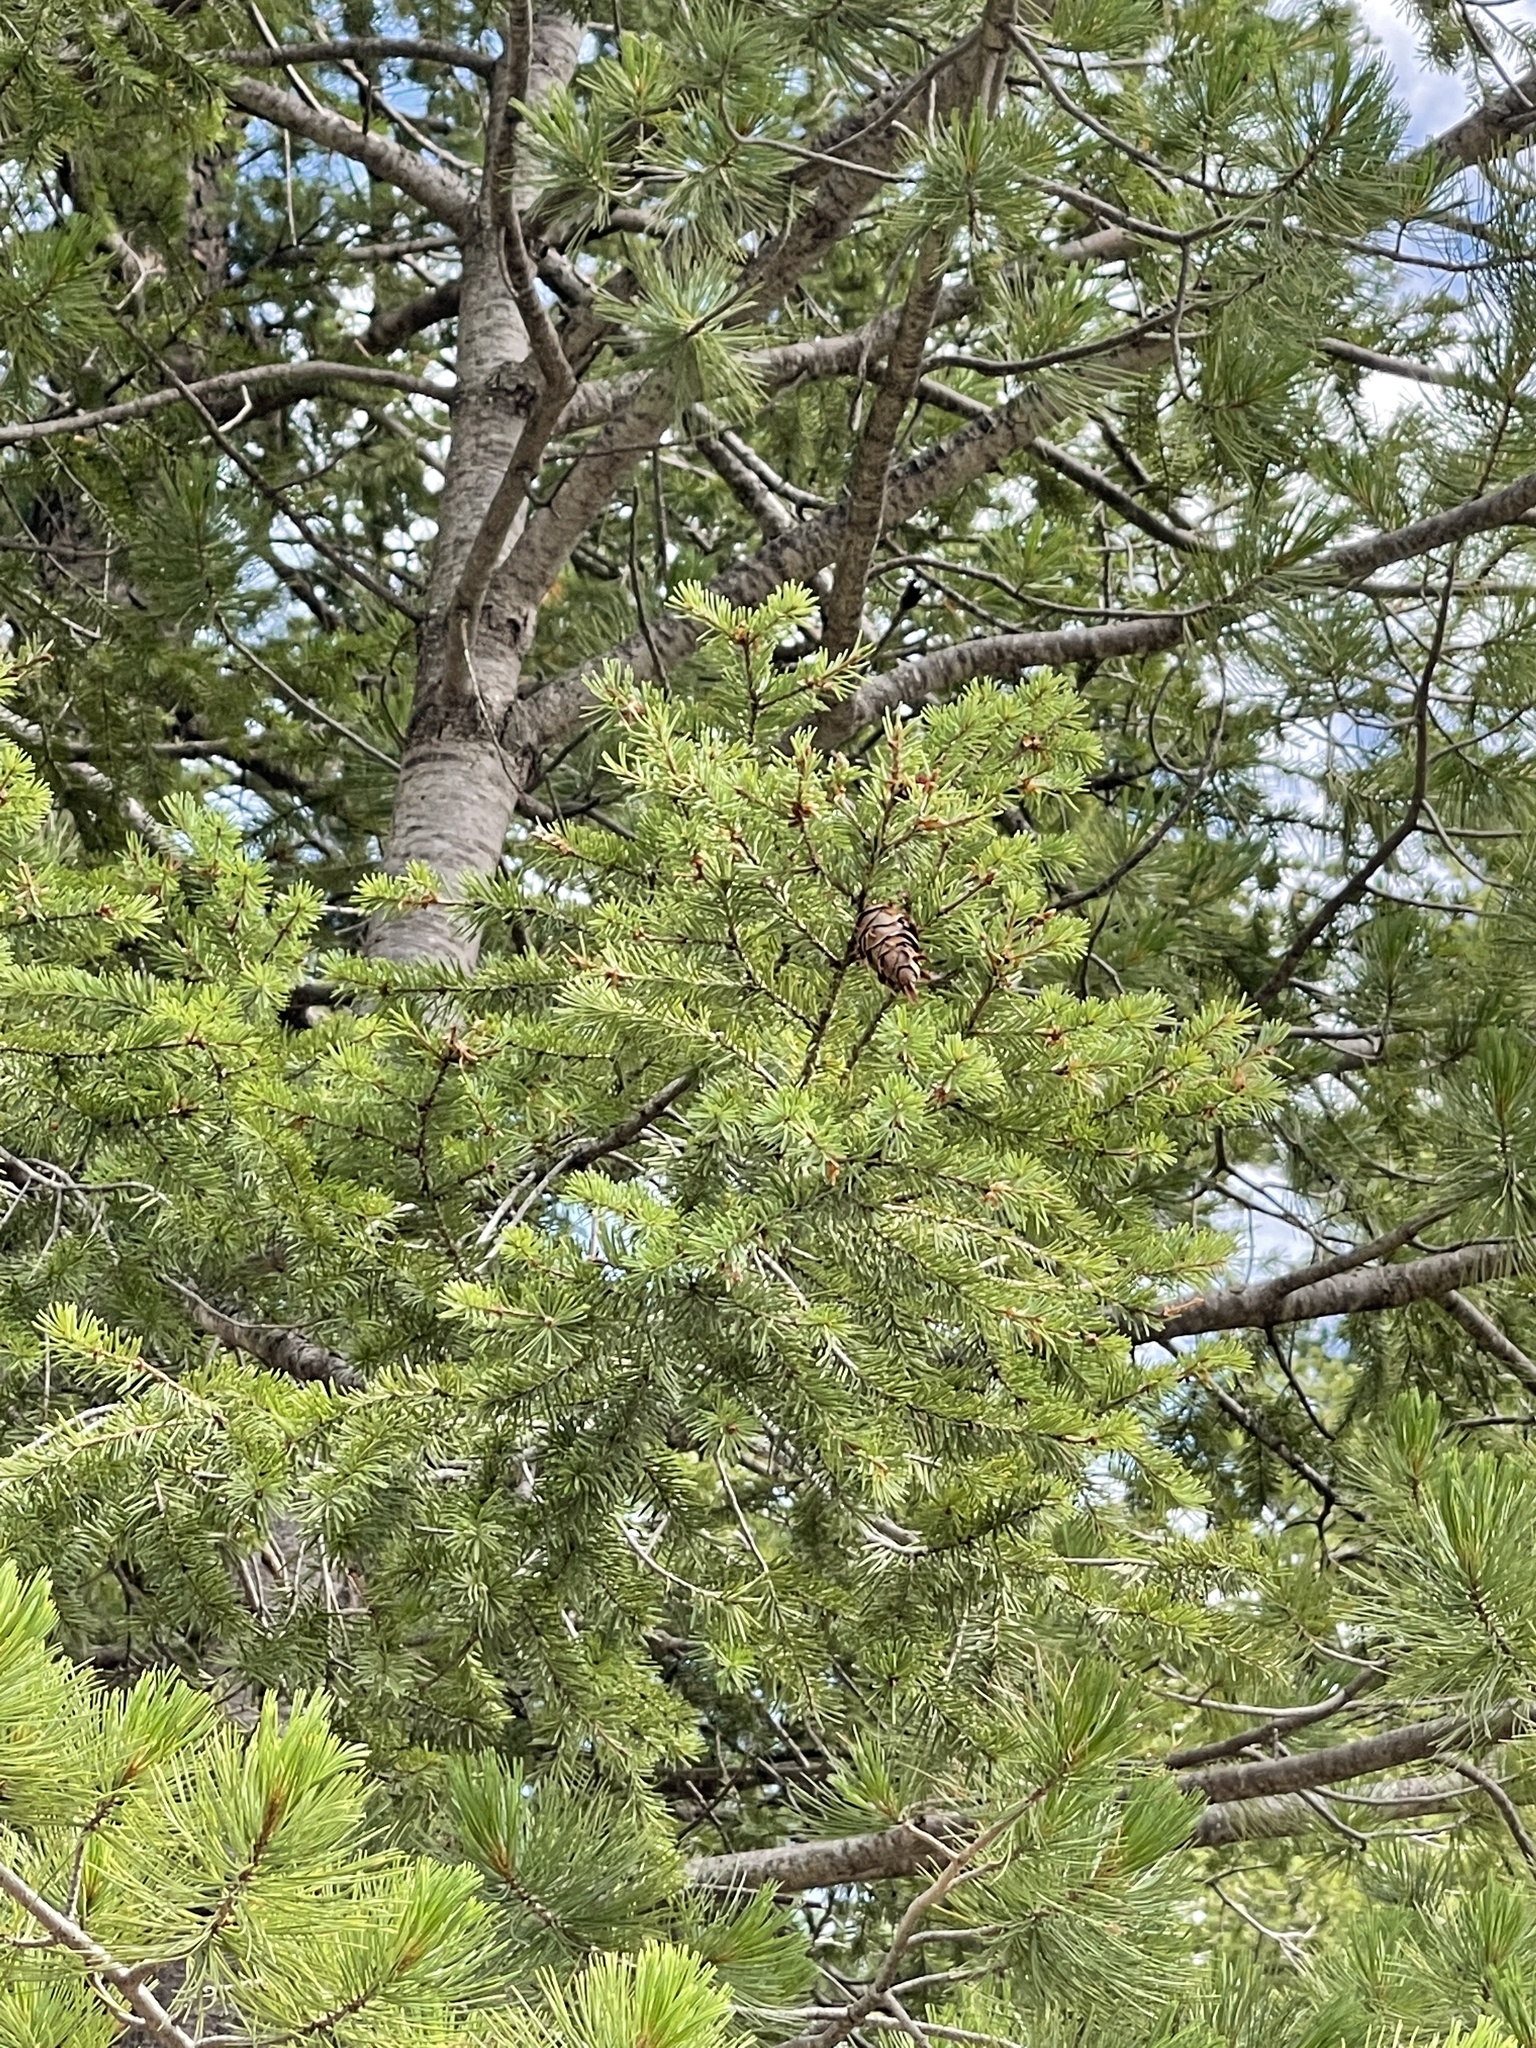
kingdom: Plantae
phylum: Tracheophyta
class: Pinopsida
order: Pinales
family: Pinaceae
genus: Pseudotsuga
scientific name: Pseudotsuga menziesii
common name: Douglas fir
